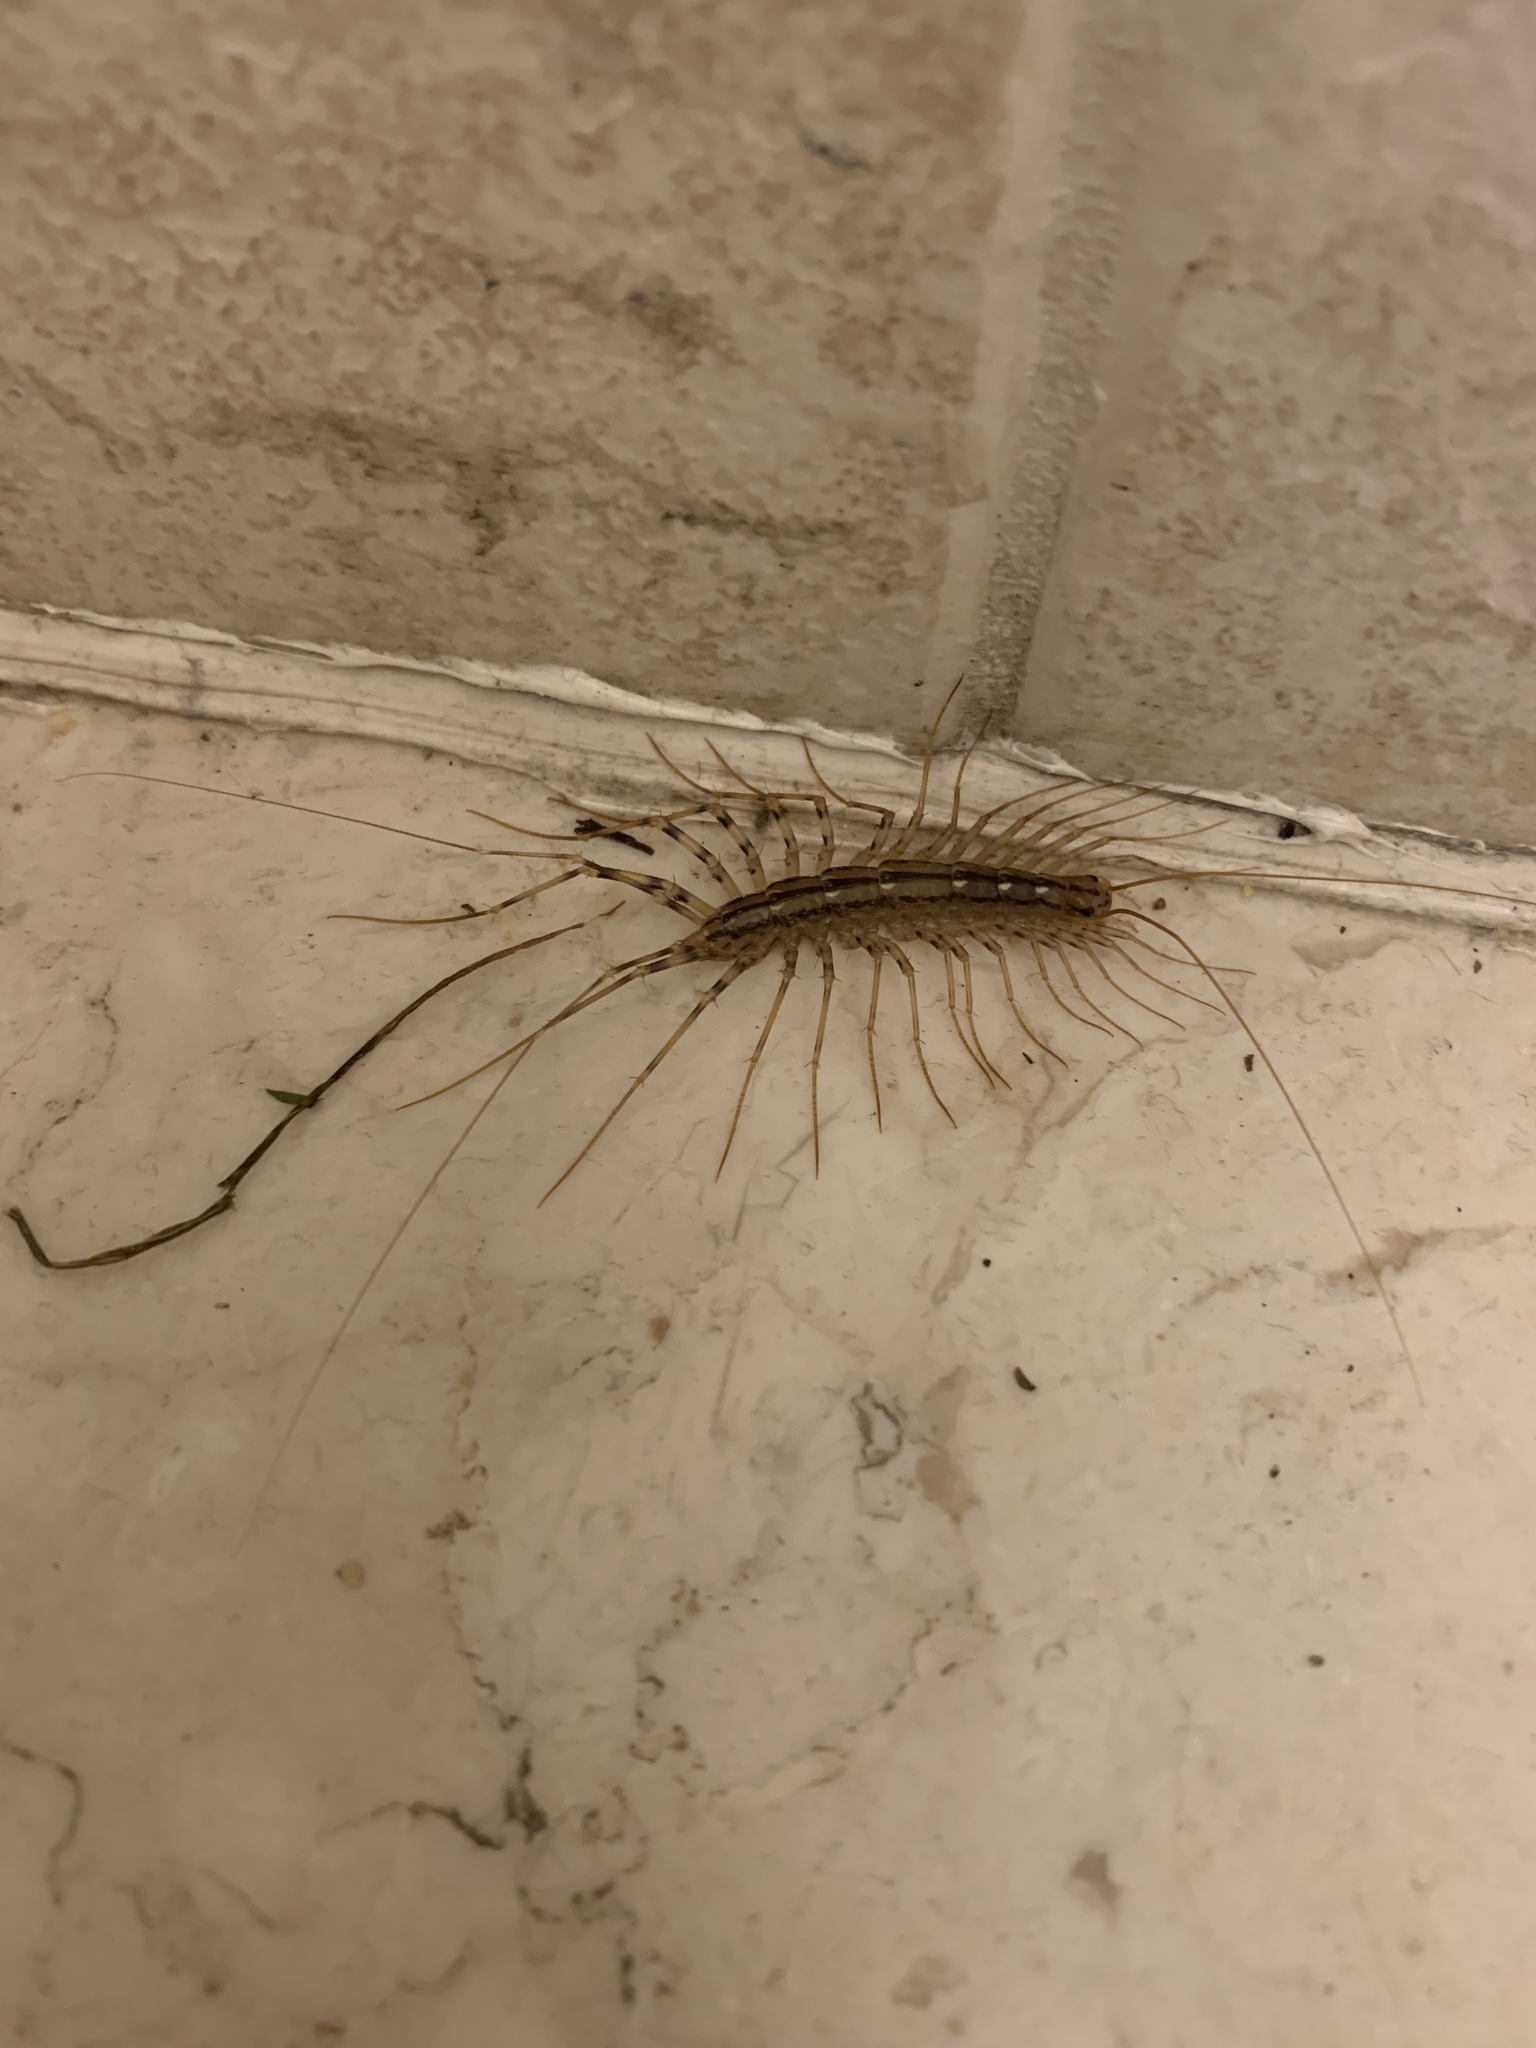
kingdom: Animalia
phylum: Arthropoda
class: Chilopoda
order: Scutigeromorpha
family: Scutigeridae
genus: Scutigera
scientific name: Scutigera coleoptrata
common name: House centipede
